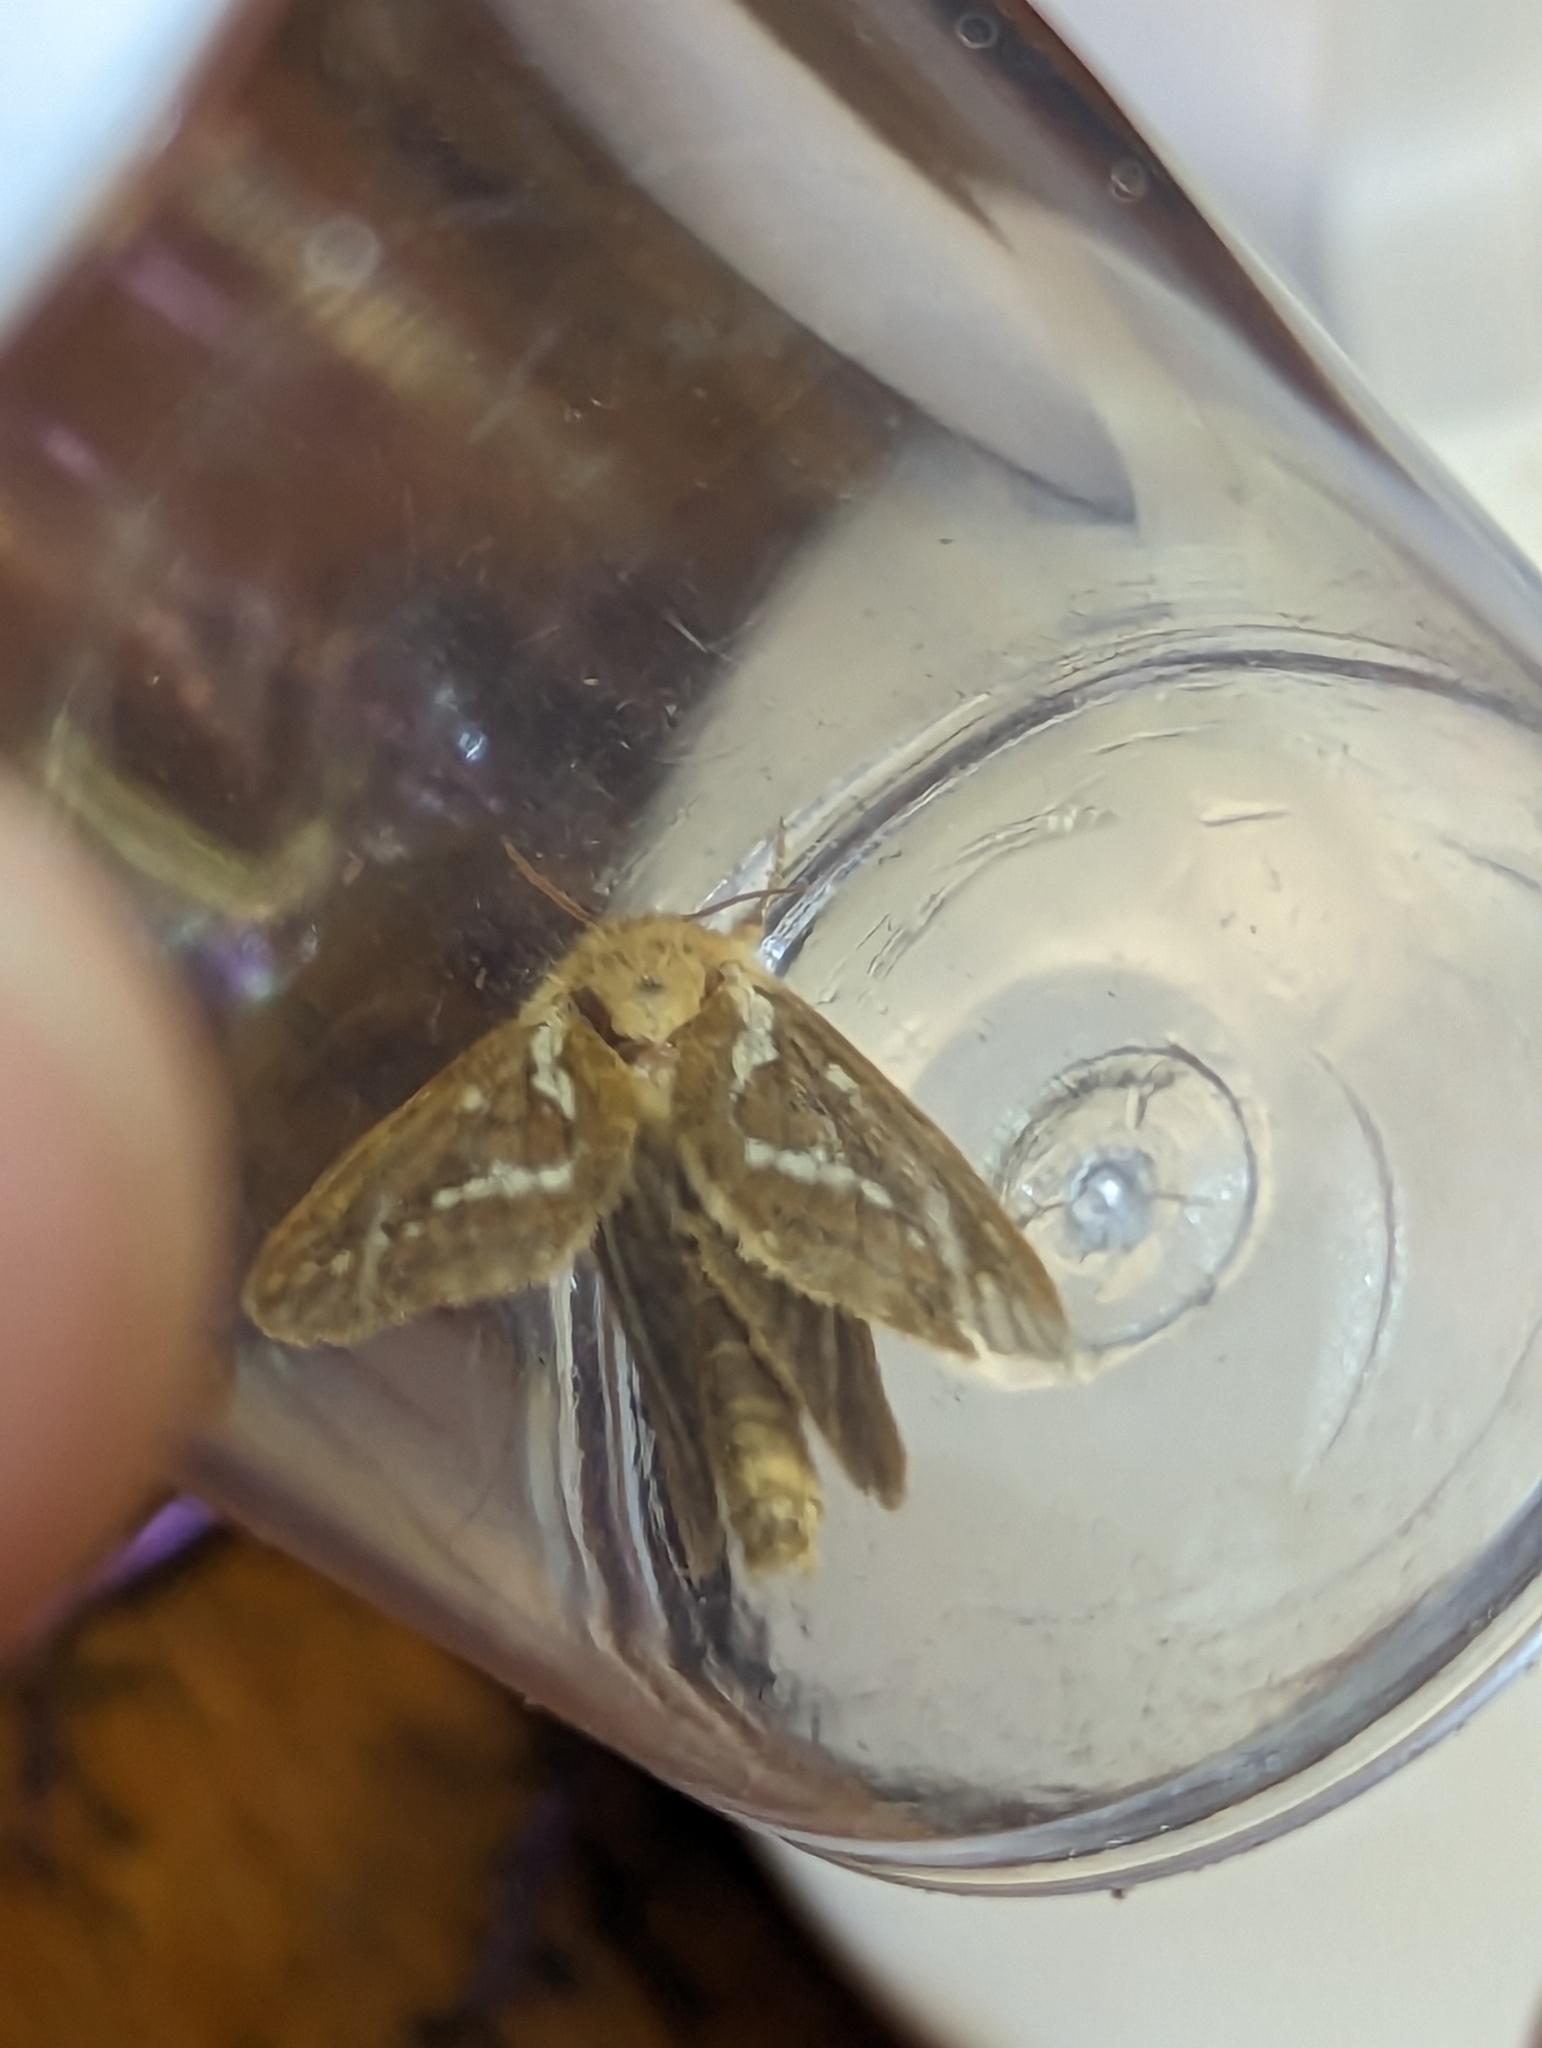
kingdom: Animalia
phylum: Arthropoda
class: Insecta
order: Lepidoptera
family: Hepialidae
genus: Korscheltellus
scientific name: Korscheltellus lupulina
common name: Common swift
